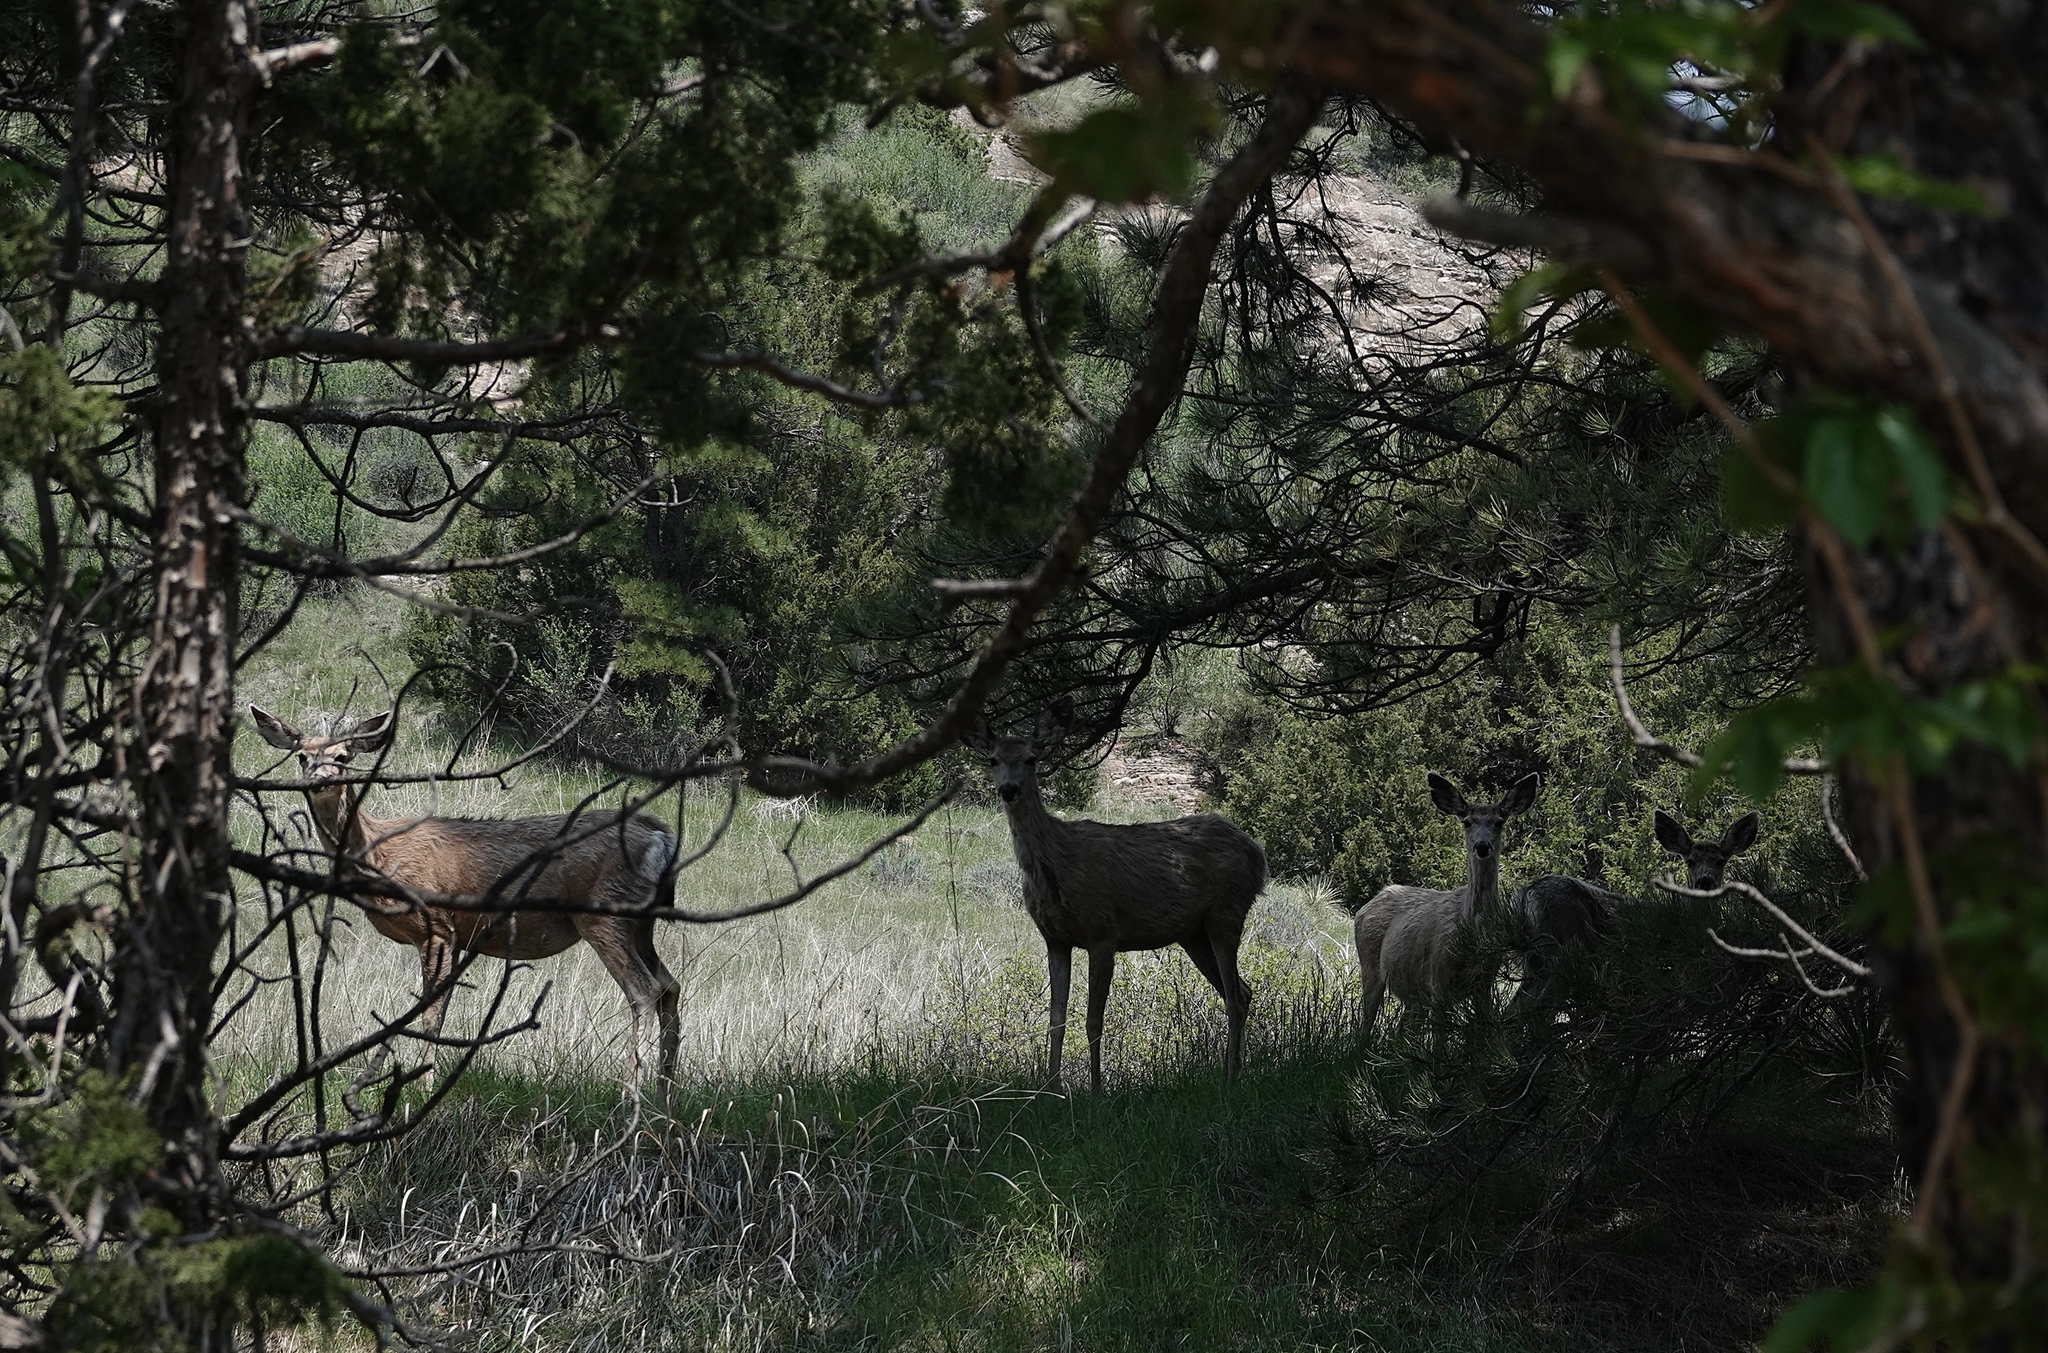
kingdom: Animalia
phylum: Chordata
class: Mammalia
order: Artiodactyla
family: Cervidae
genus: Odocoileus
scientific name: Odocoileus hemionus
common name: Mule deer
